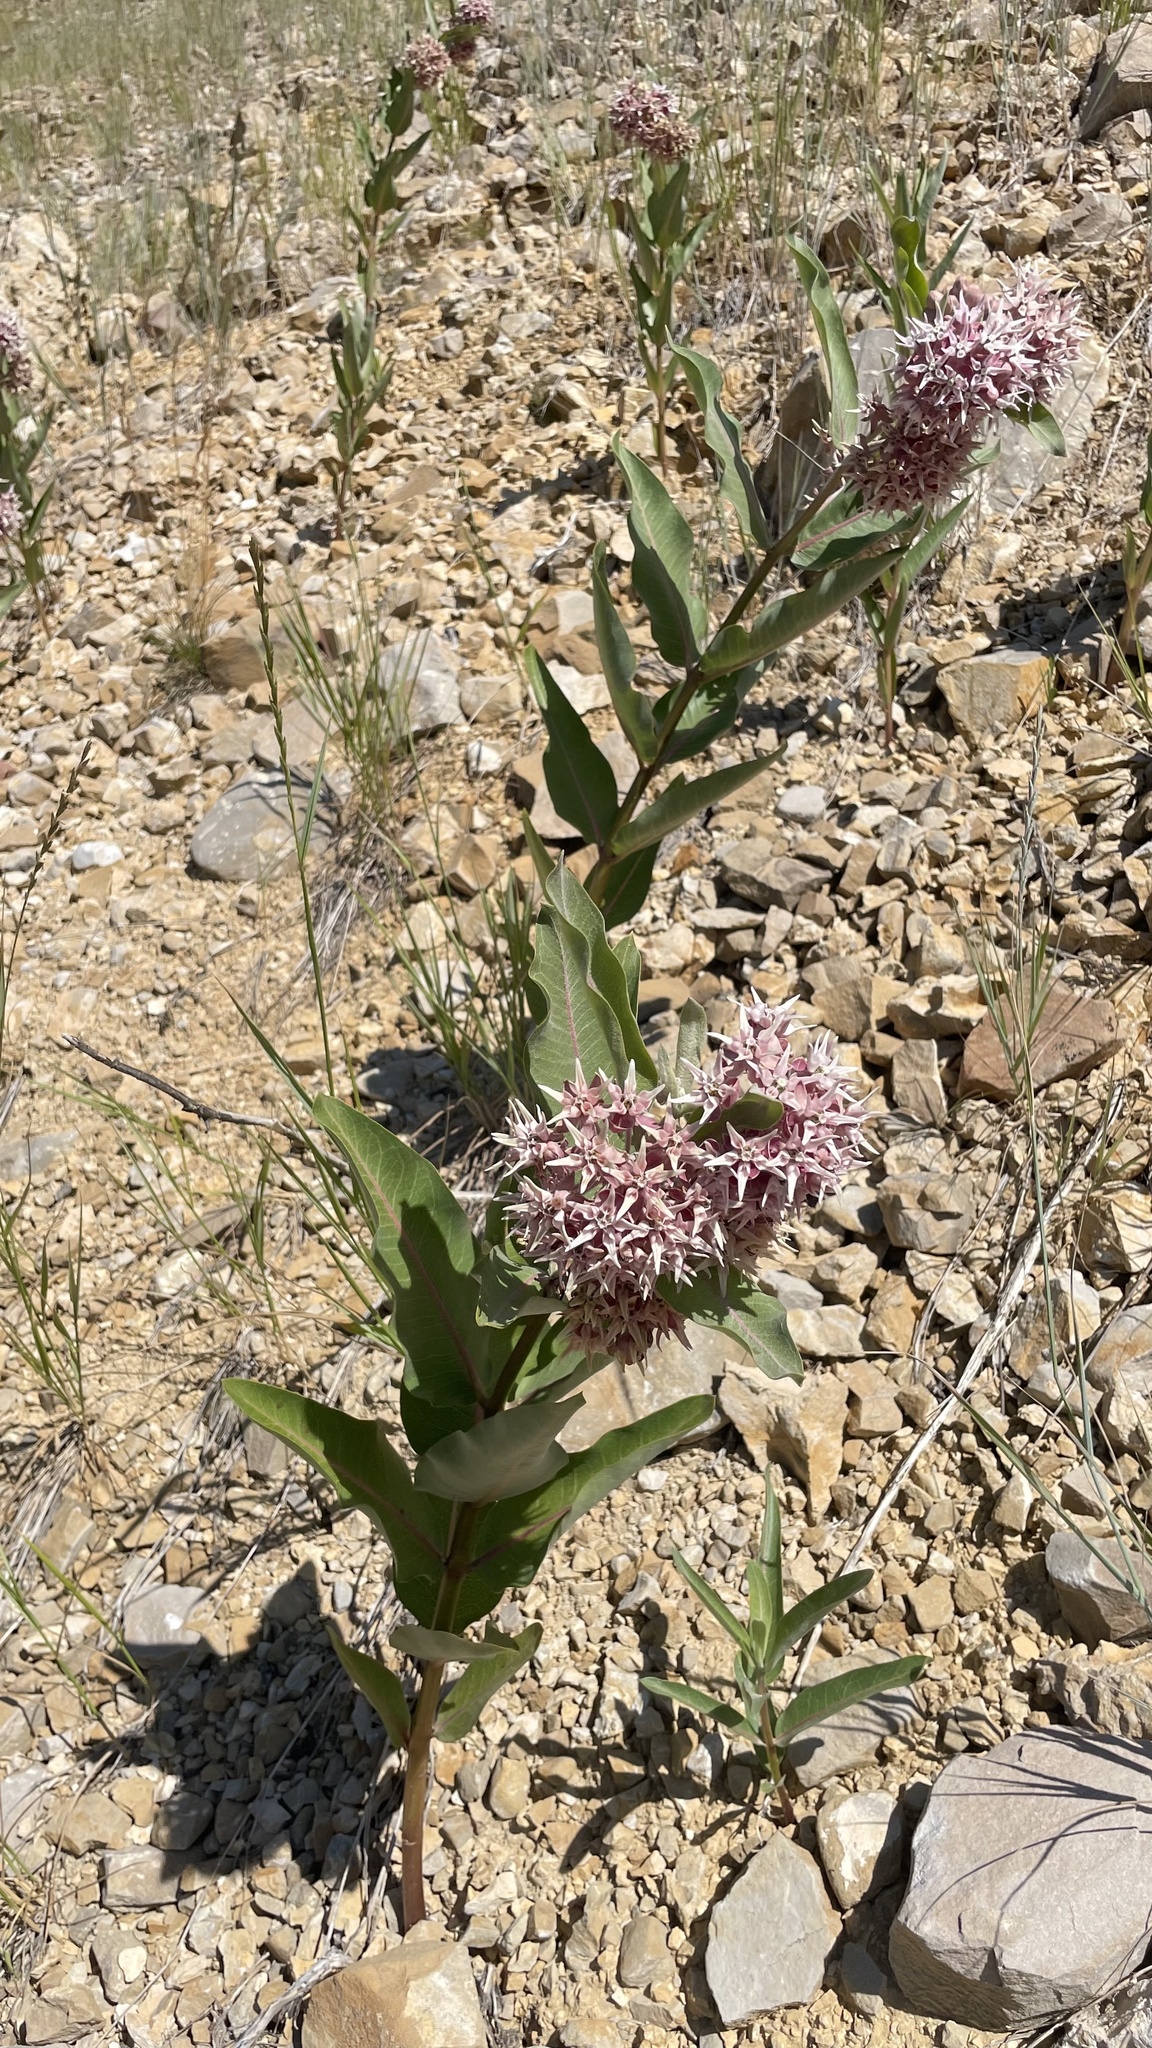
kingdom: Plantae
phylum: Tracheophyta
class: Magnoliopsida
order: Gentianales
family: Apocynaceae
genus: Asclepias
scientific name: Asclepias speciosa
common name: Showy milkweed
